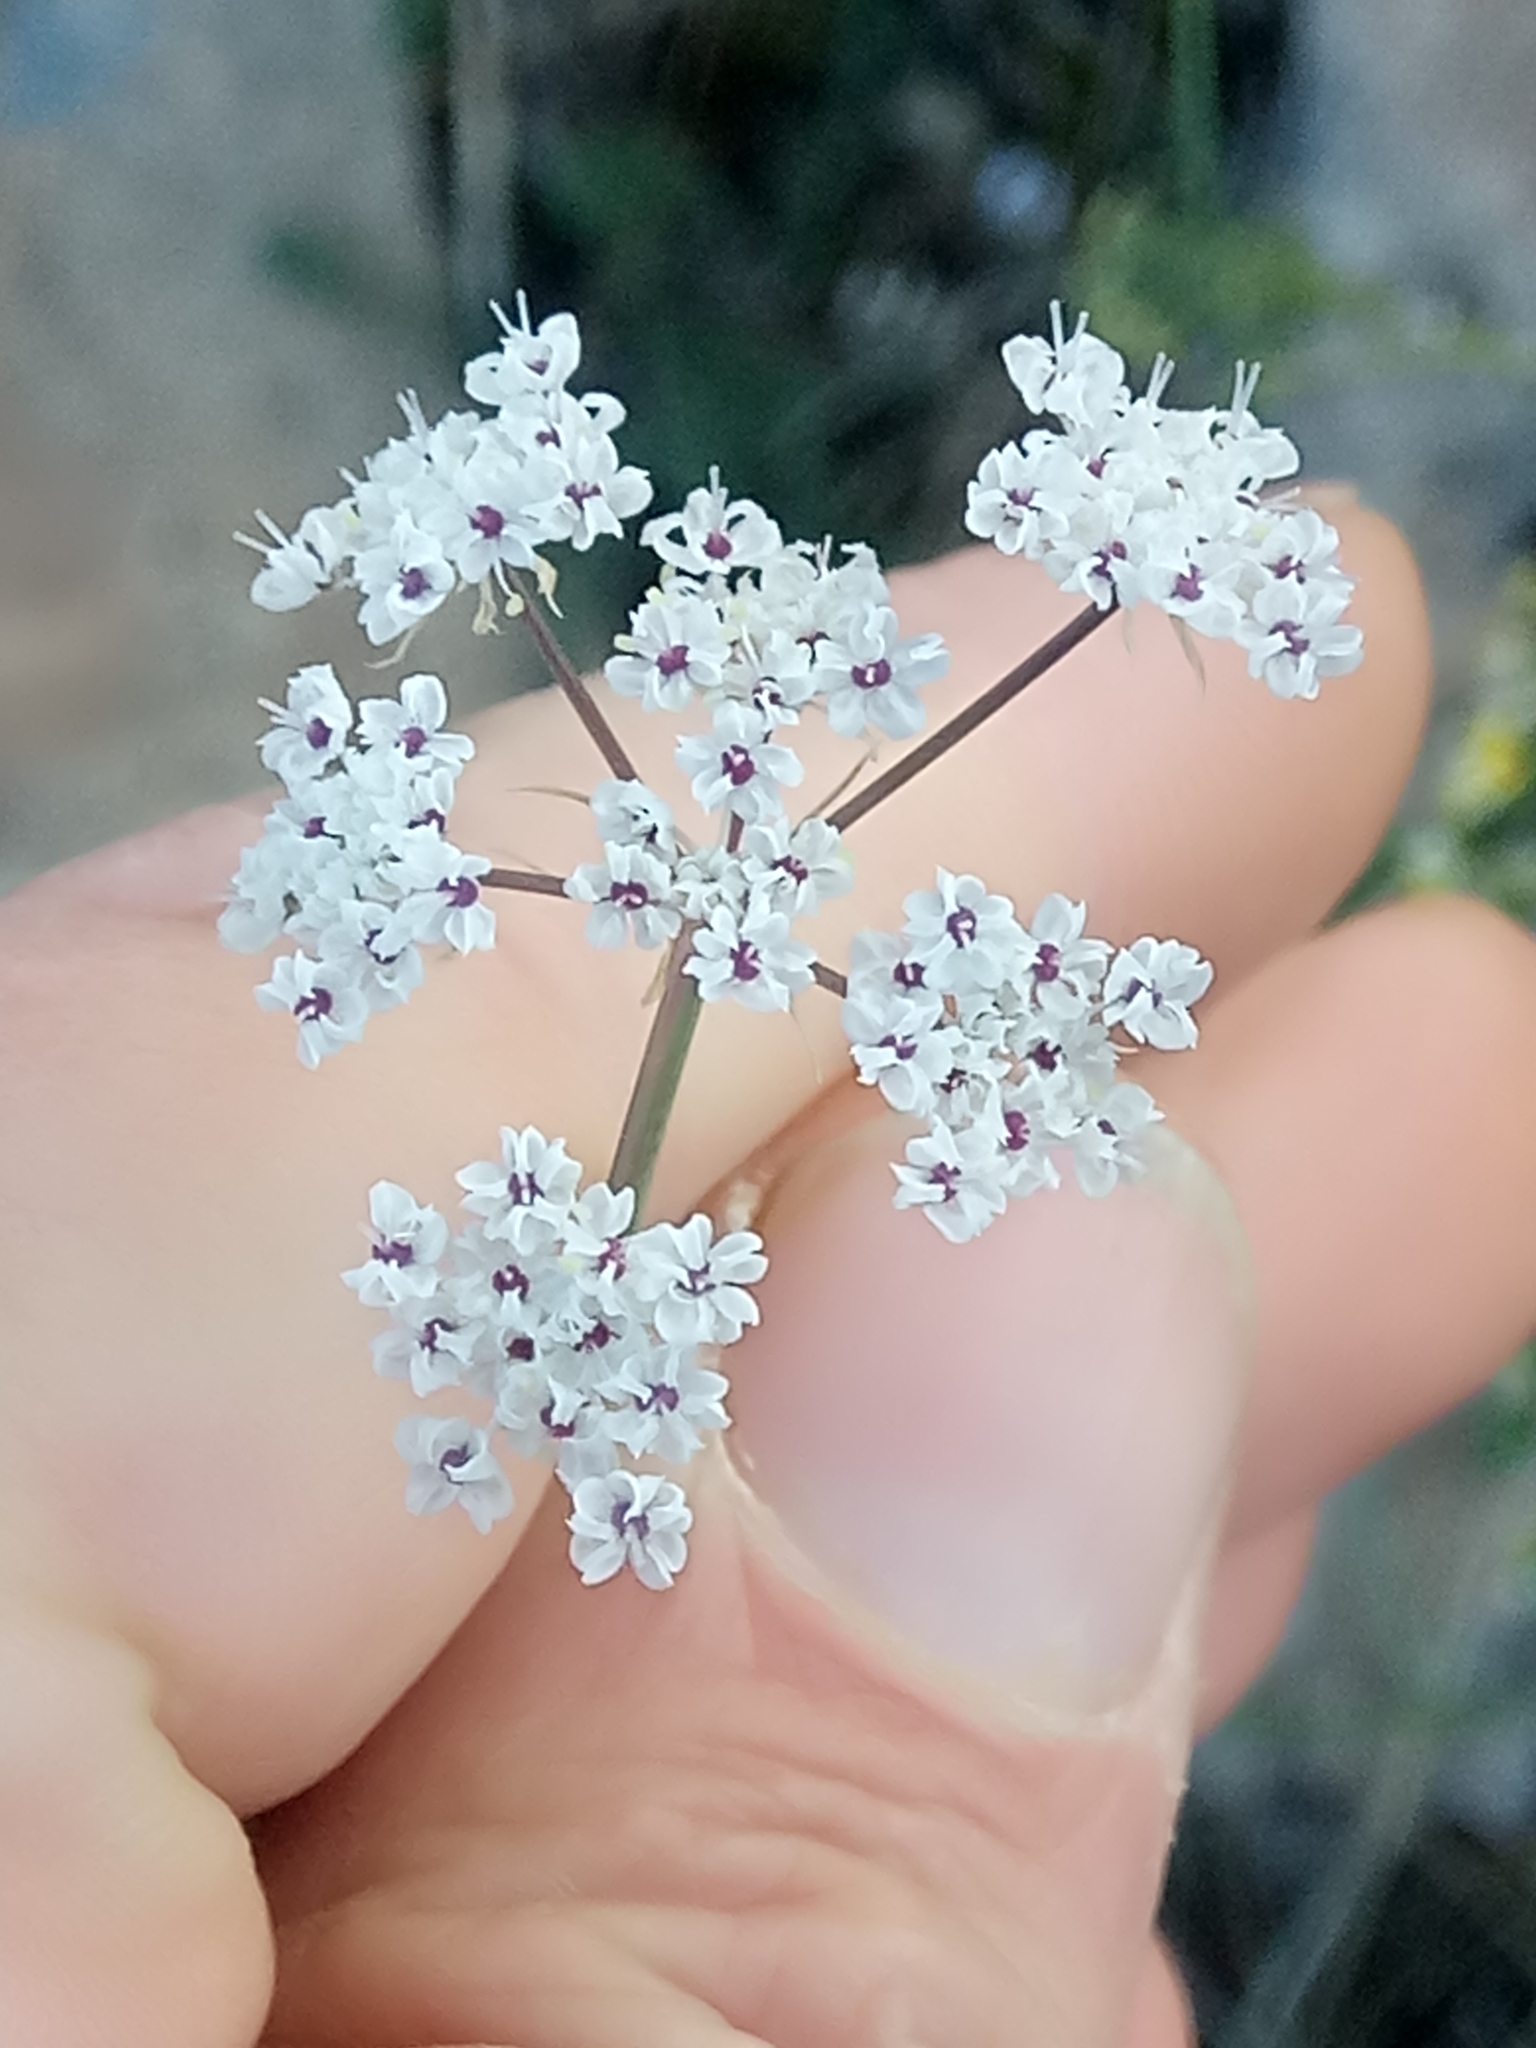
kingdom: Plantae
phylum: Tracheophyta
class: Magnoliopsida
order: Apiales
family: Apiaceae
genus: Deverra
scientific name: Deverra scoparia
